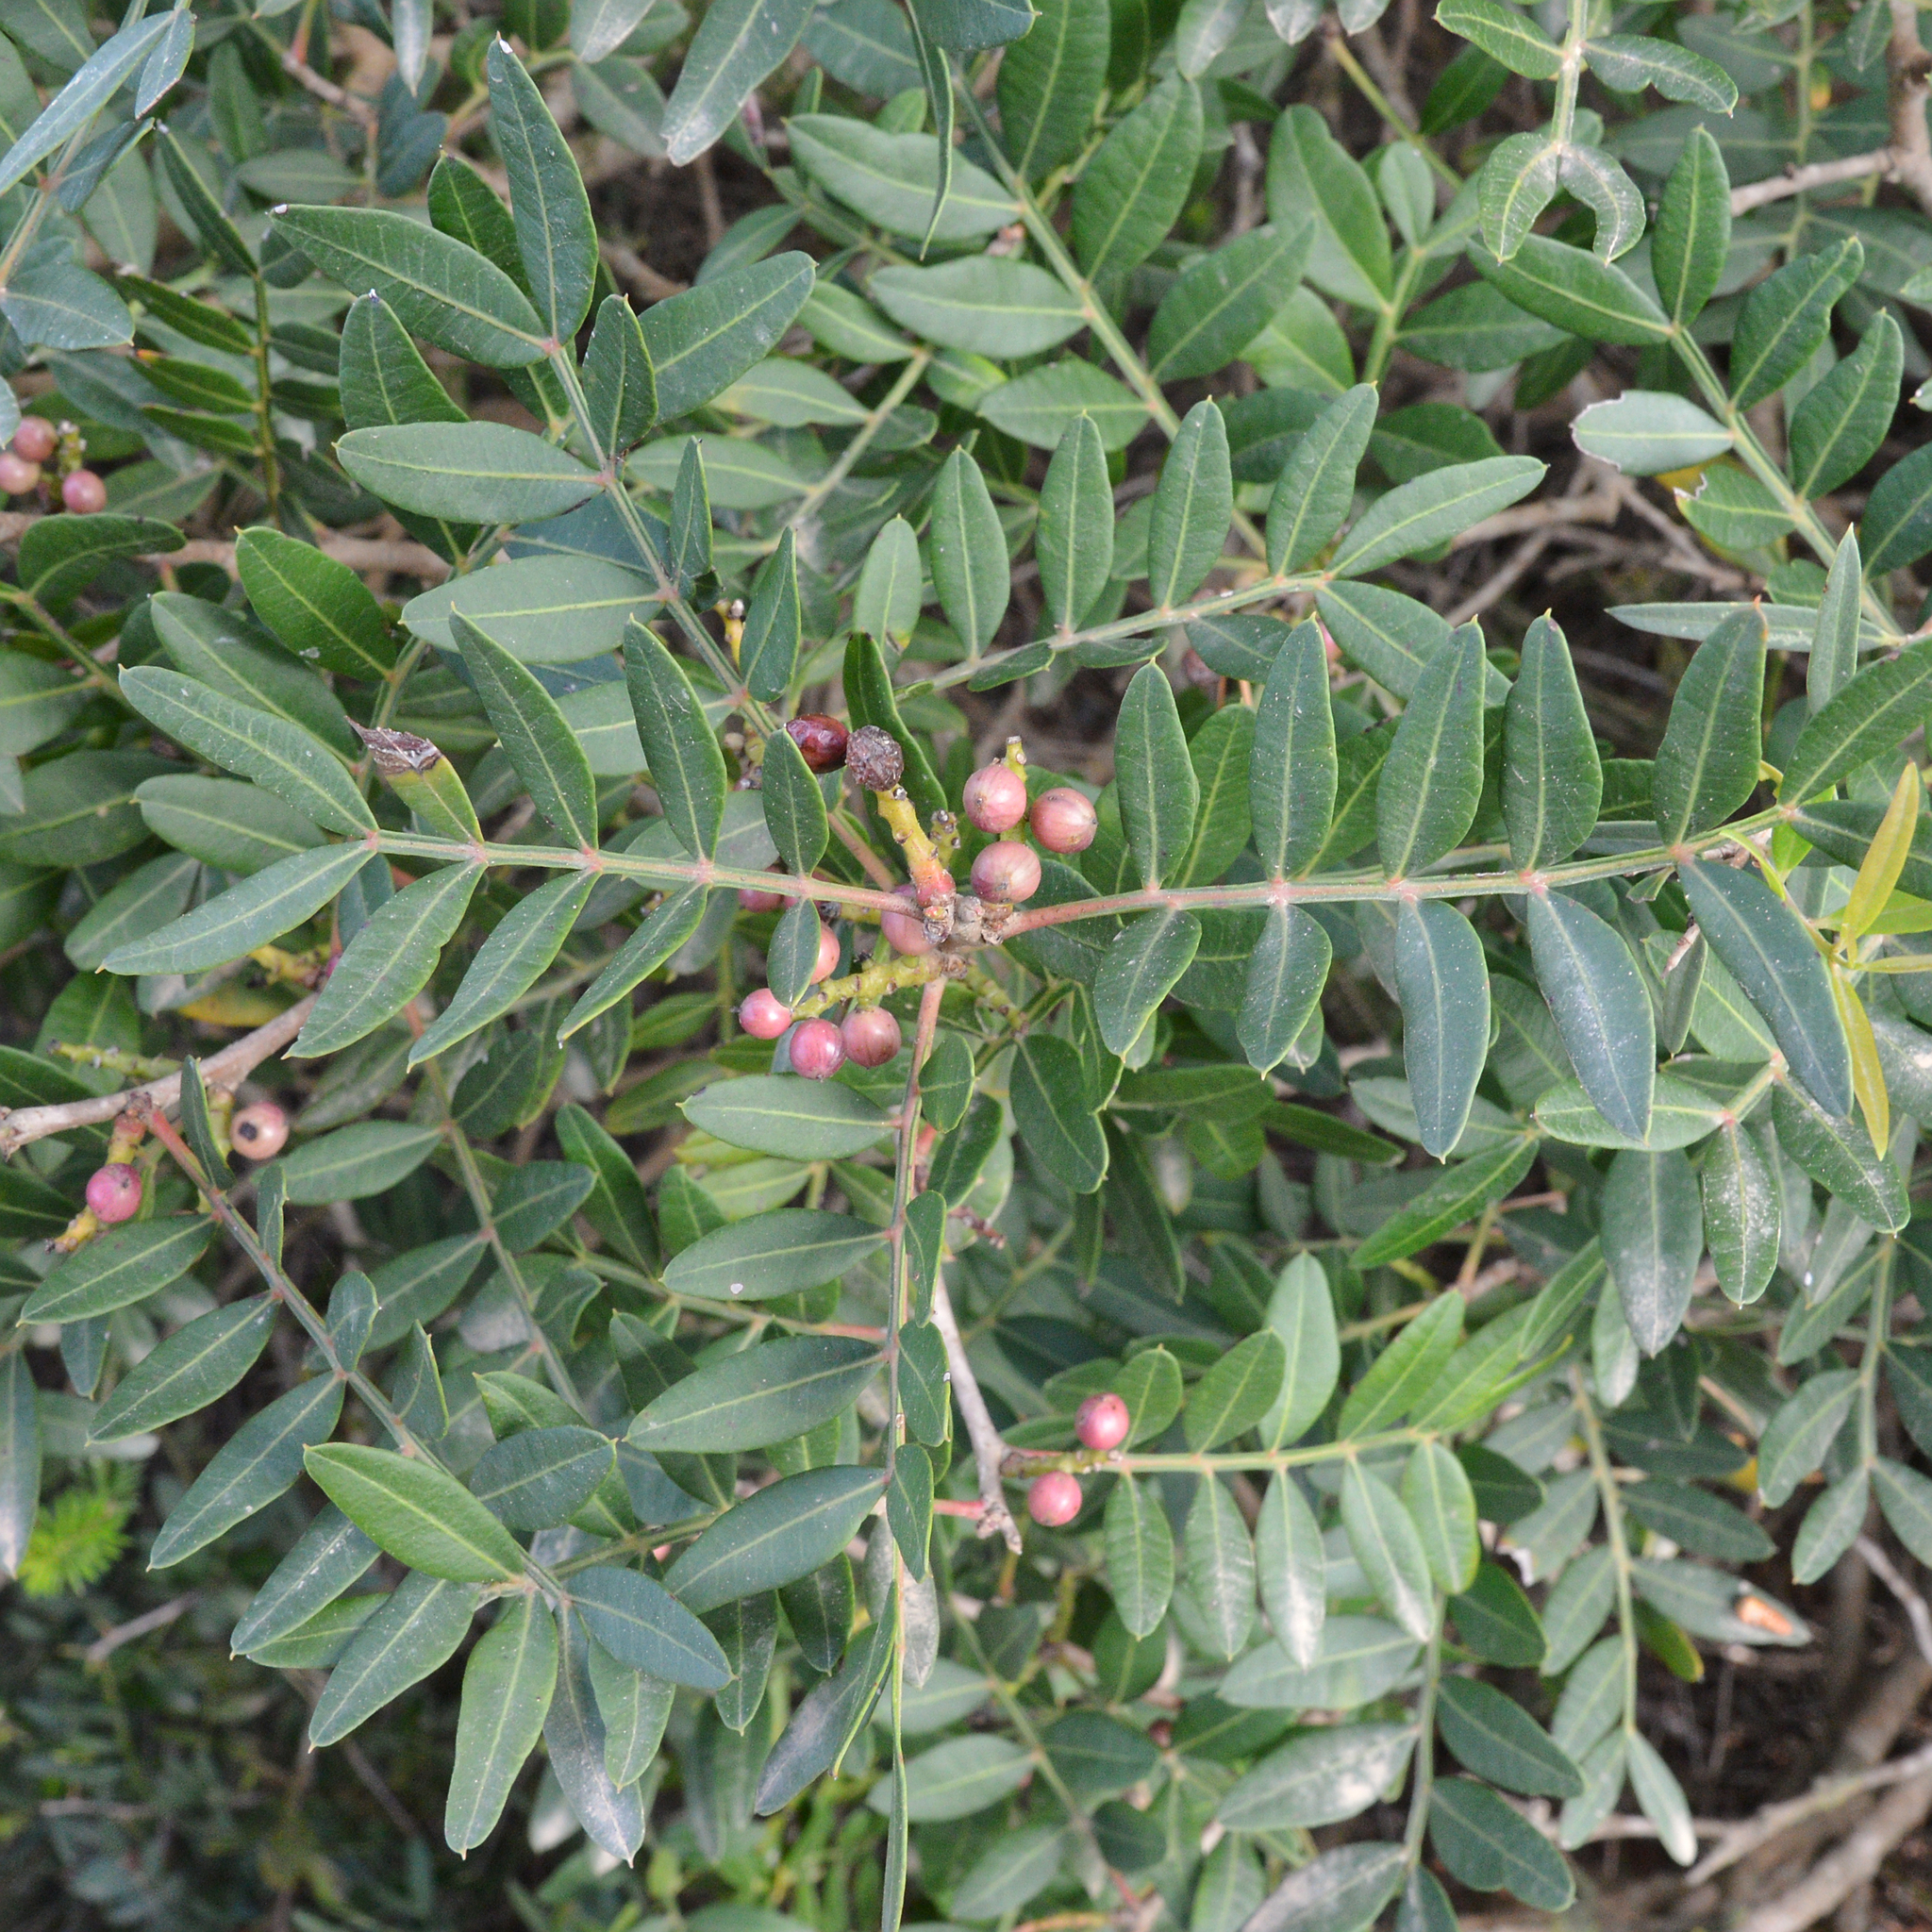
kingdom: Plantae
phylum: Tracheophyta
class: Magnoliopsida
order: Sapindales
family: Anacardiaceae
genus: Pistacia
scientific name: Pistacia lentiscus
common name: Lentisk
